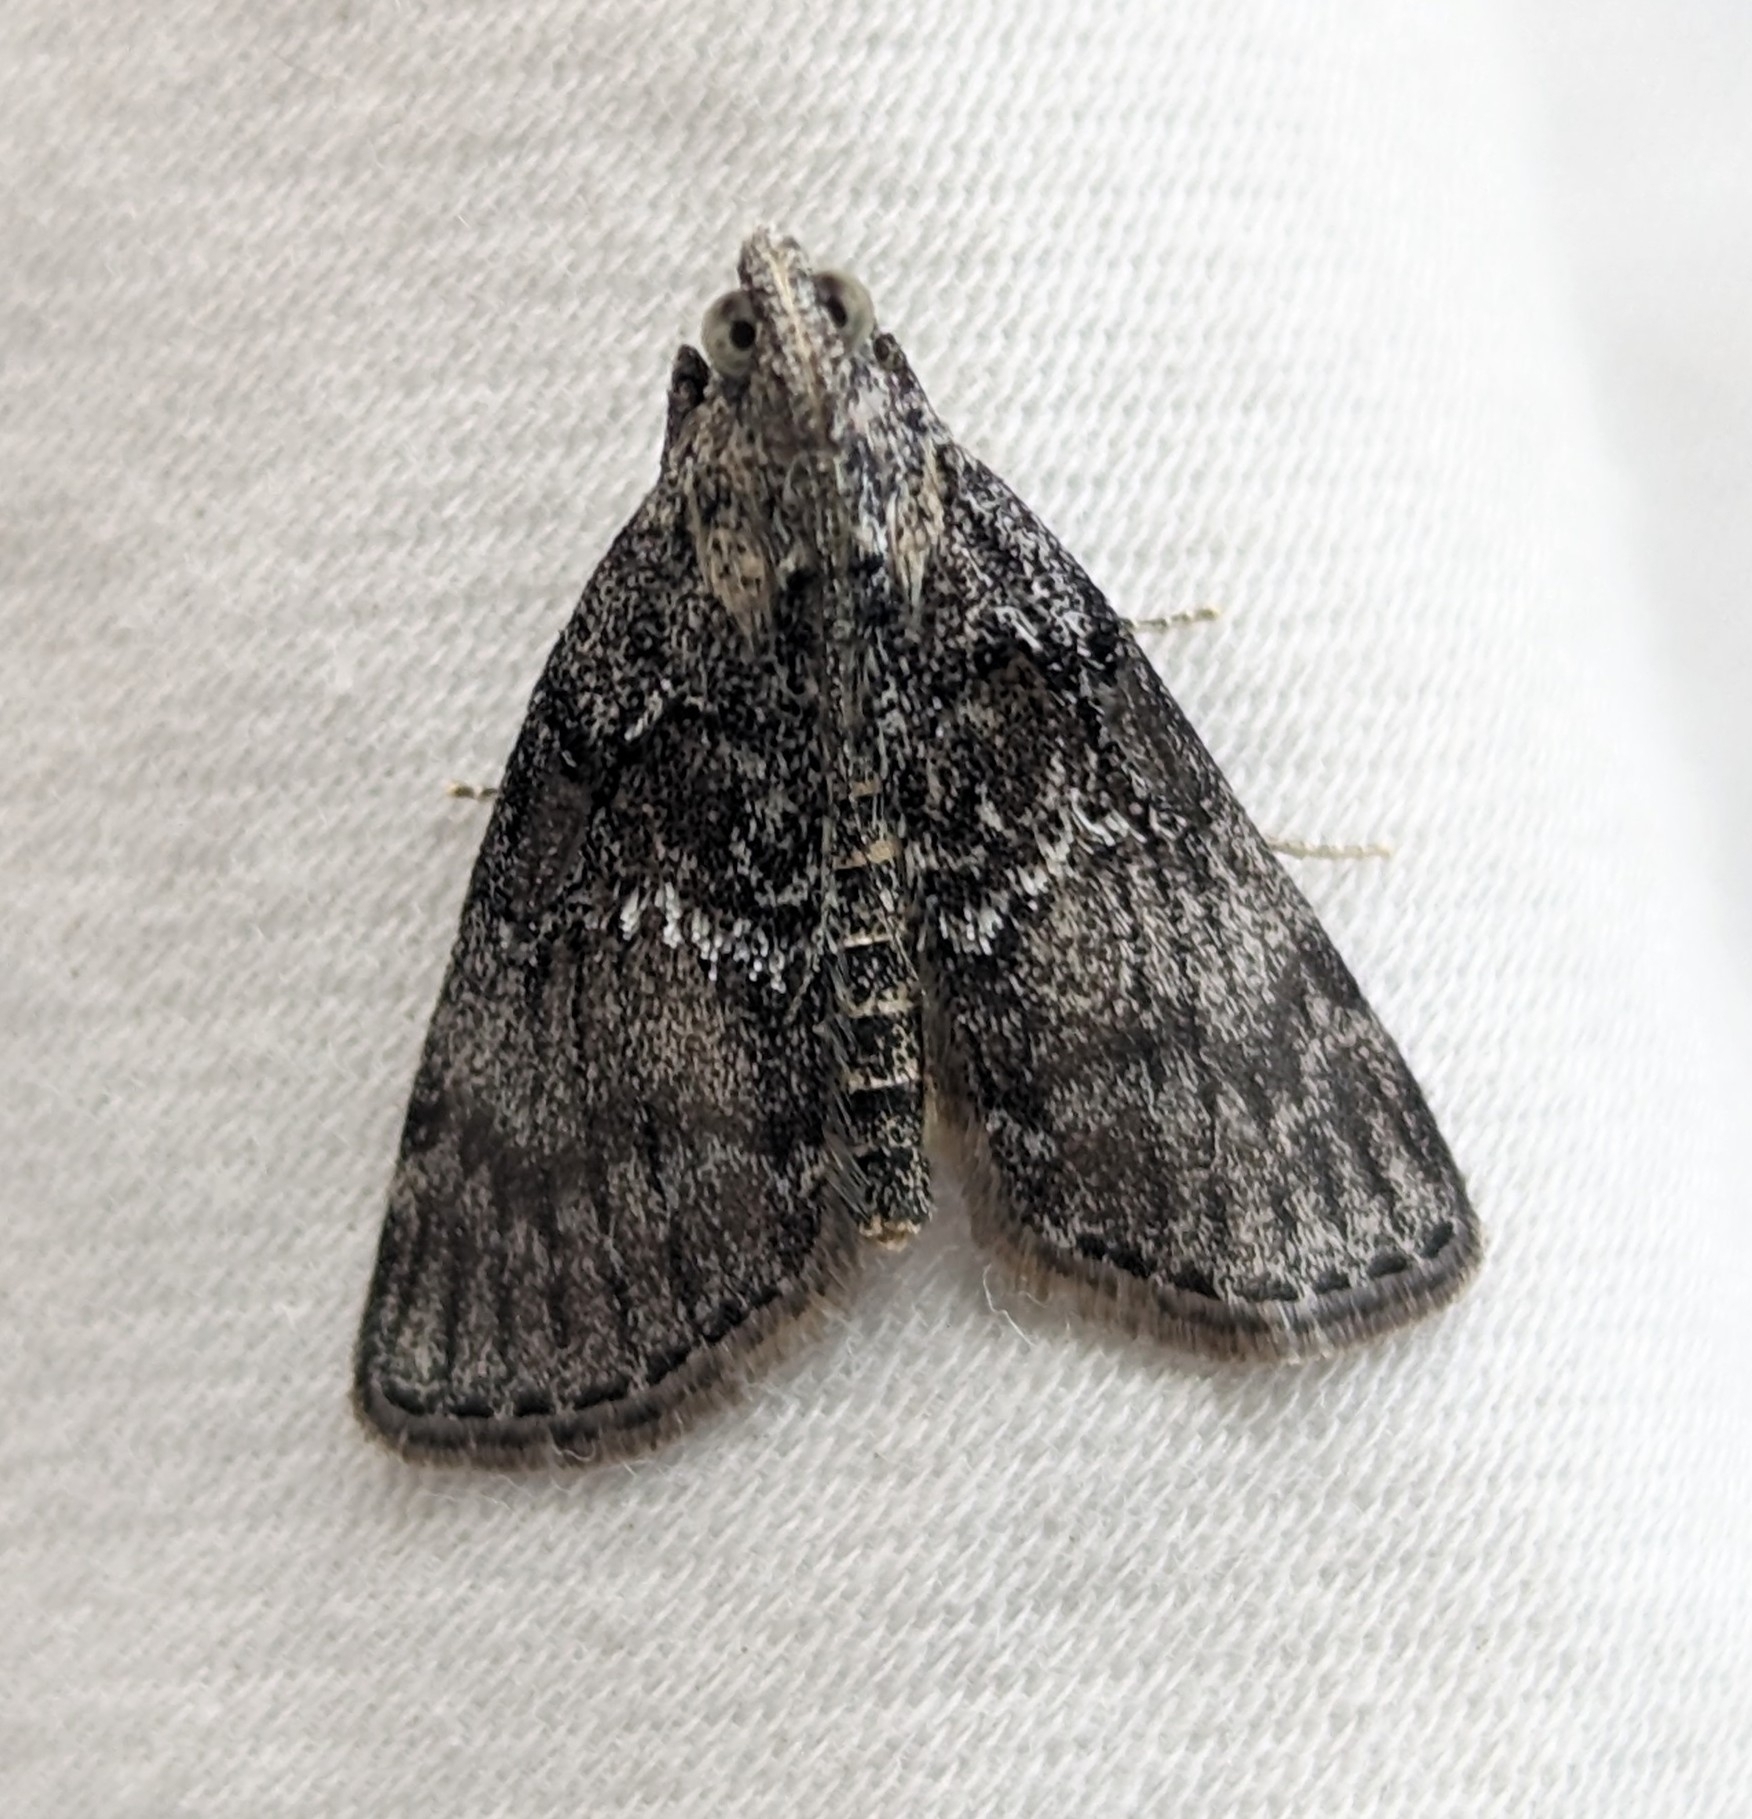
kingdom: Animalia
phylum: Arthropoda
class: Insecta
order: Lepidoptera
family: Pyralidae
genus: Pococera
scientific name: Pococera asperatella
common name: Maple webworm moth
